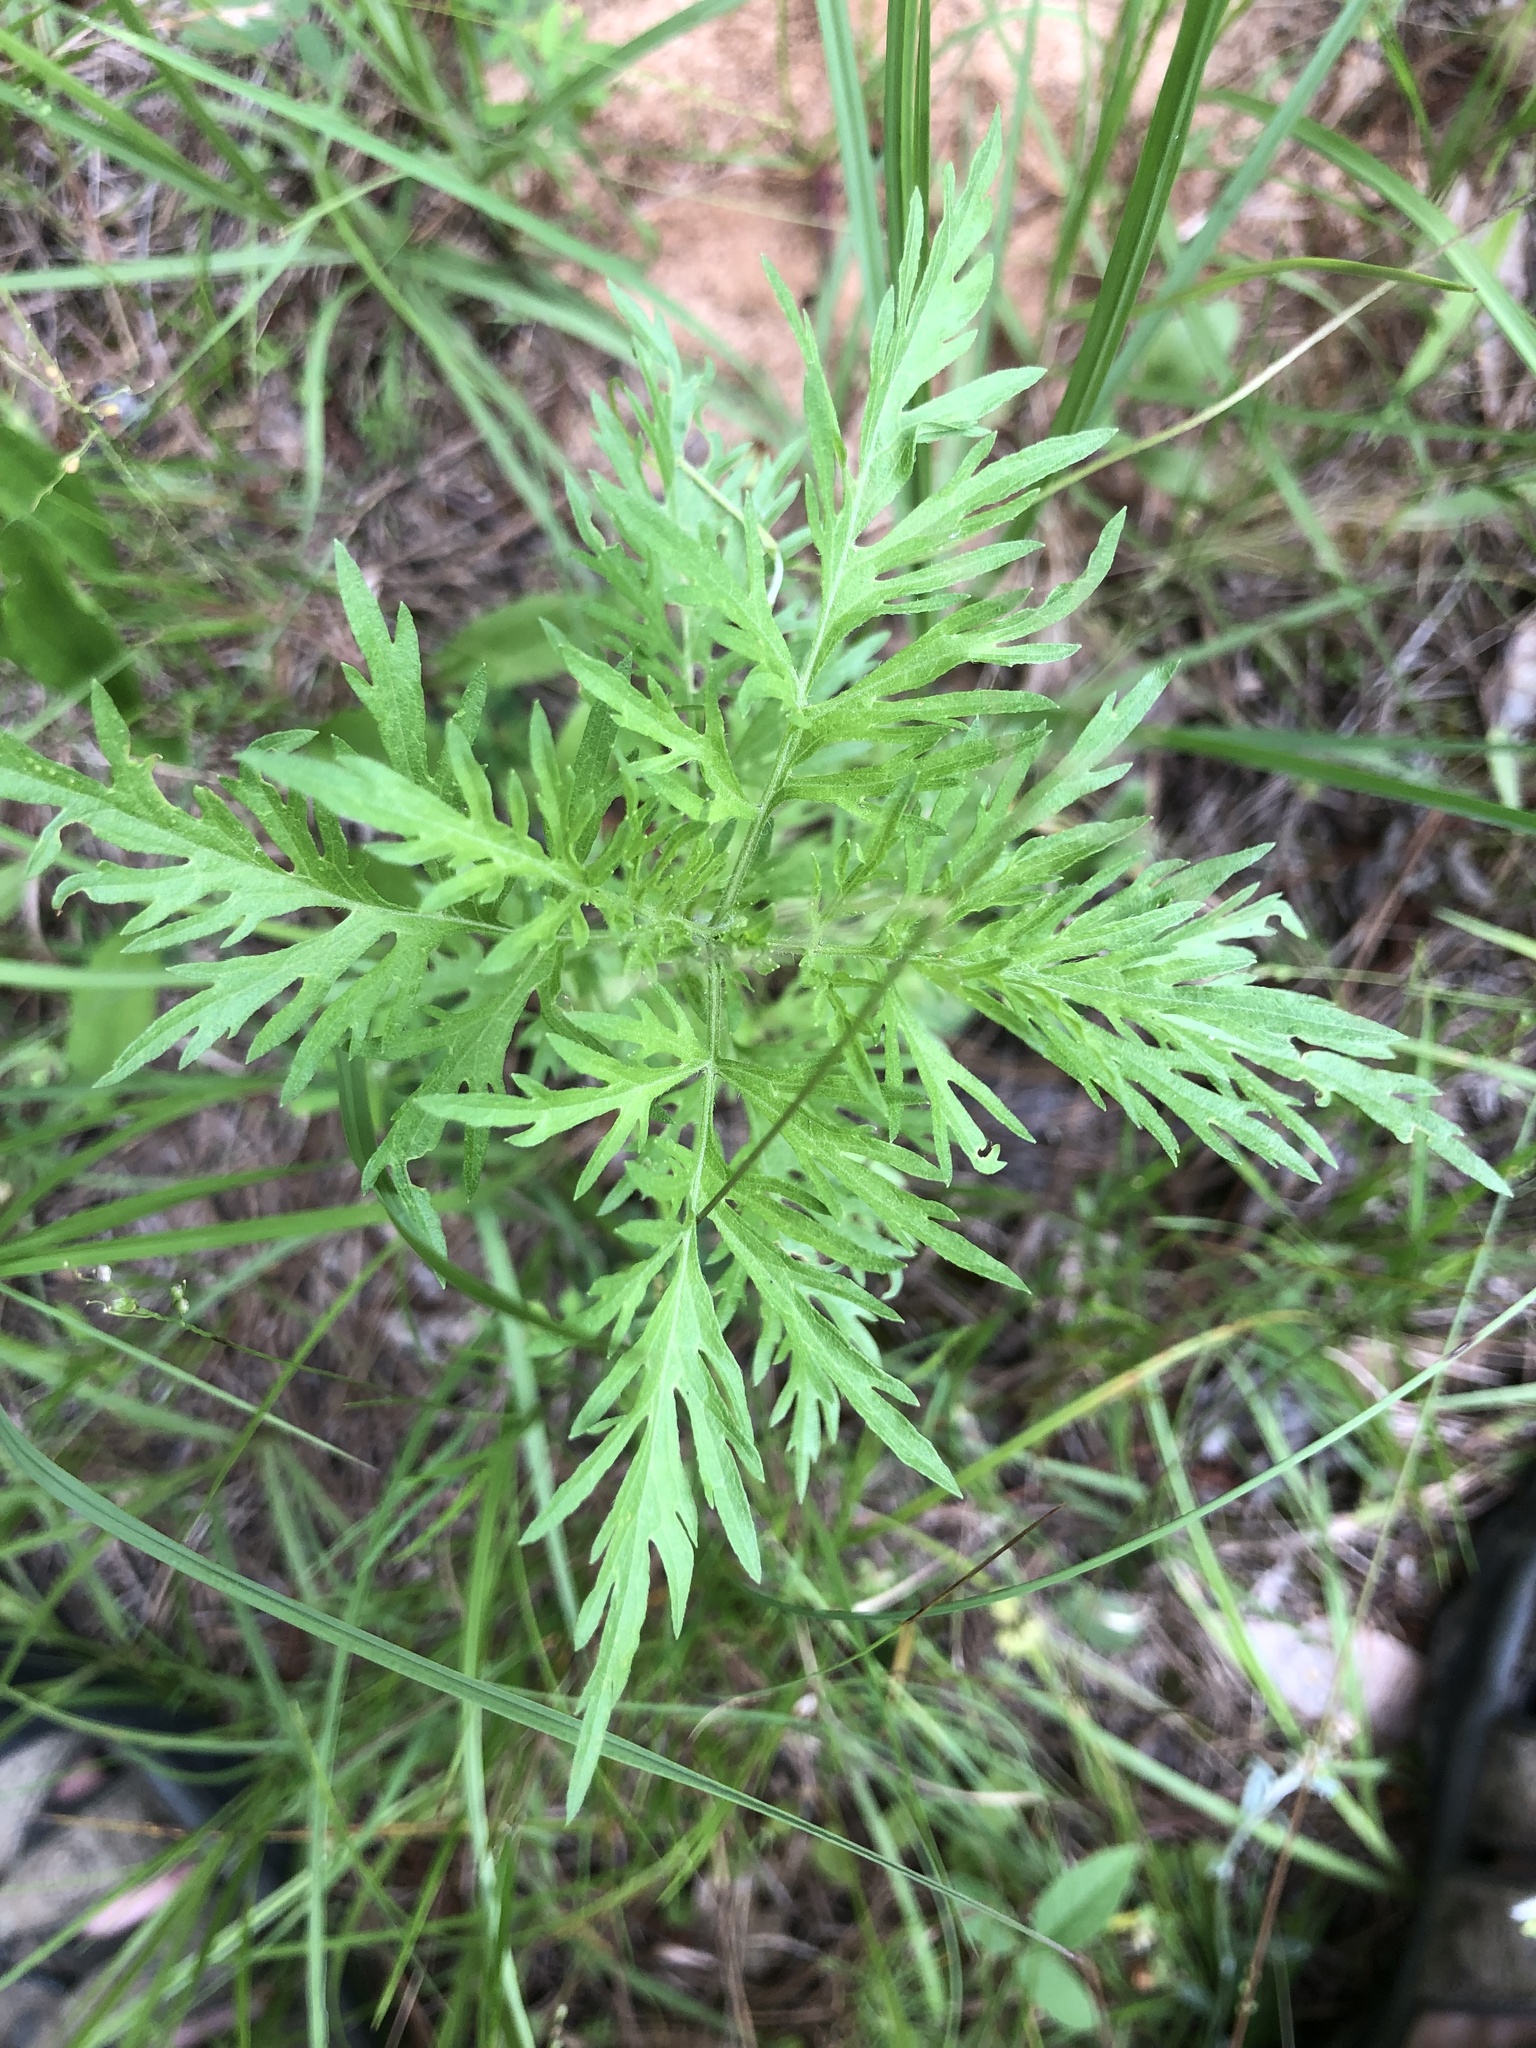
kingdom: Plantae
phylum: Tracheophyta
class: Magnoliopsida
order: Asterales
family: Asteraceae
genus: Eupatorium
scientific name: Eupatorium pinnatifidum
